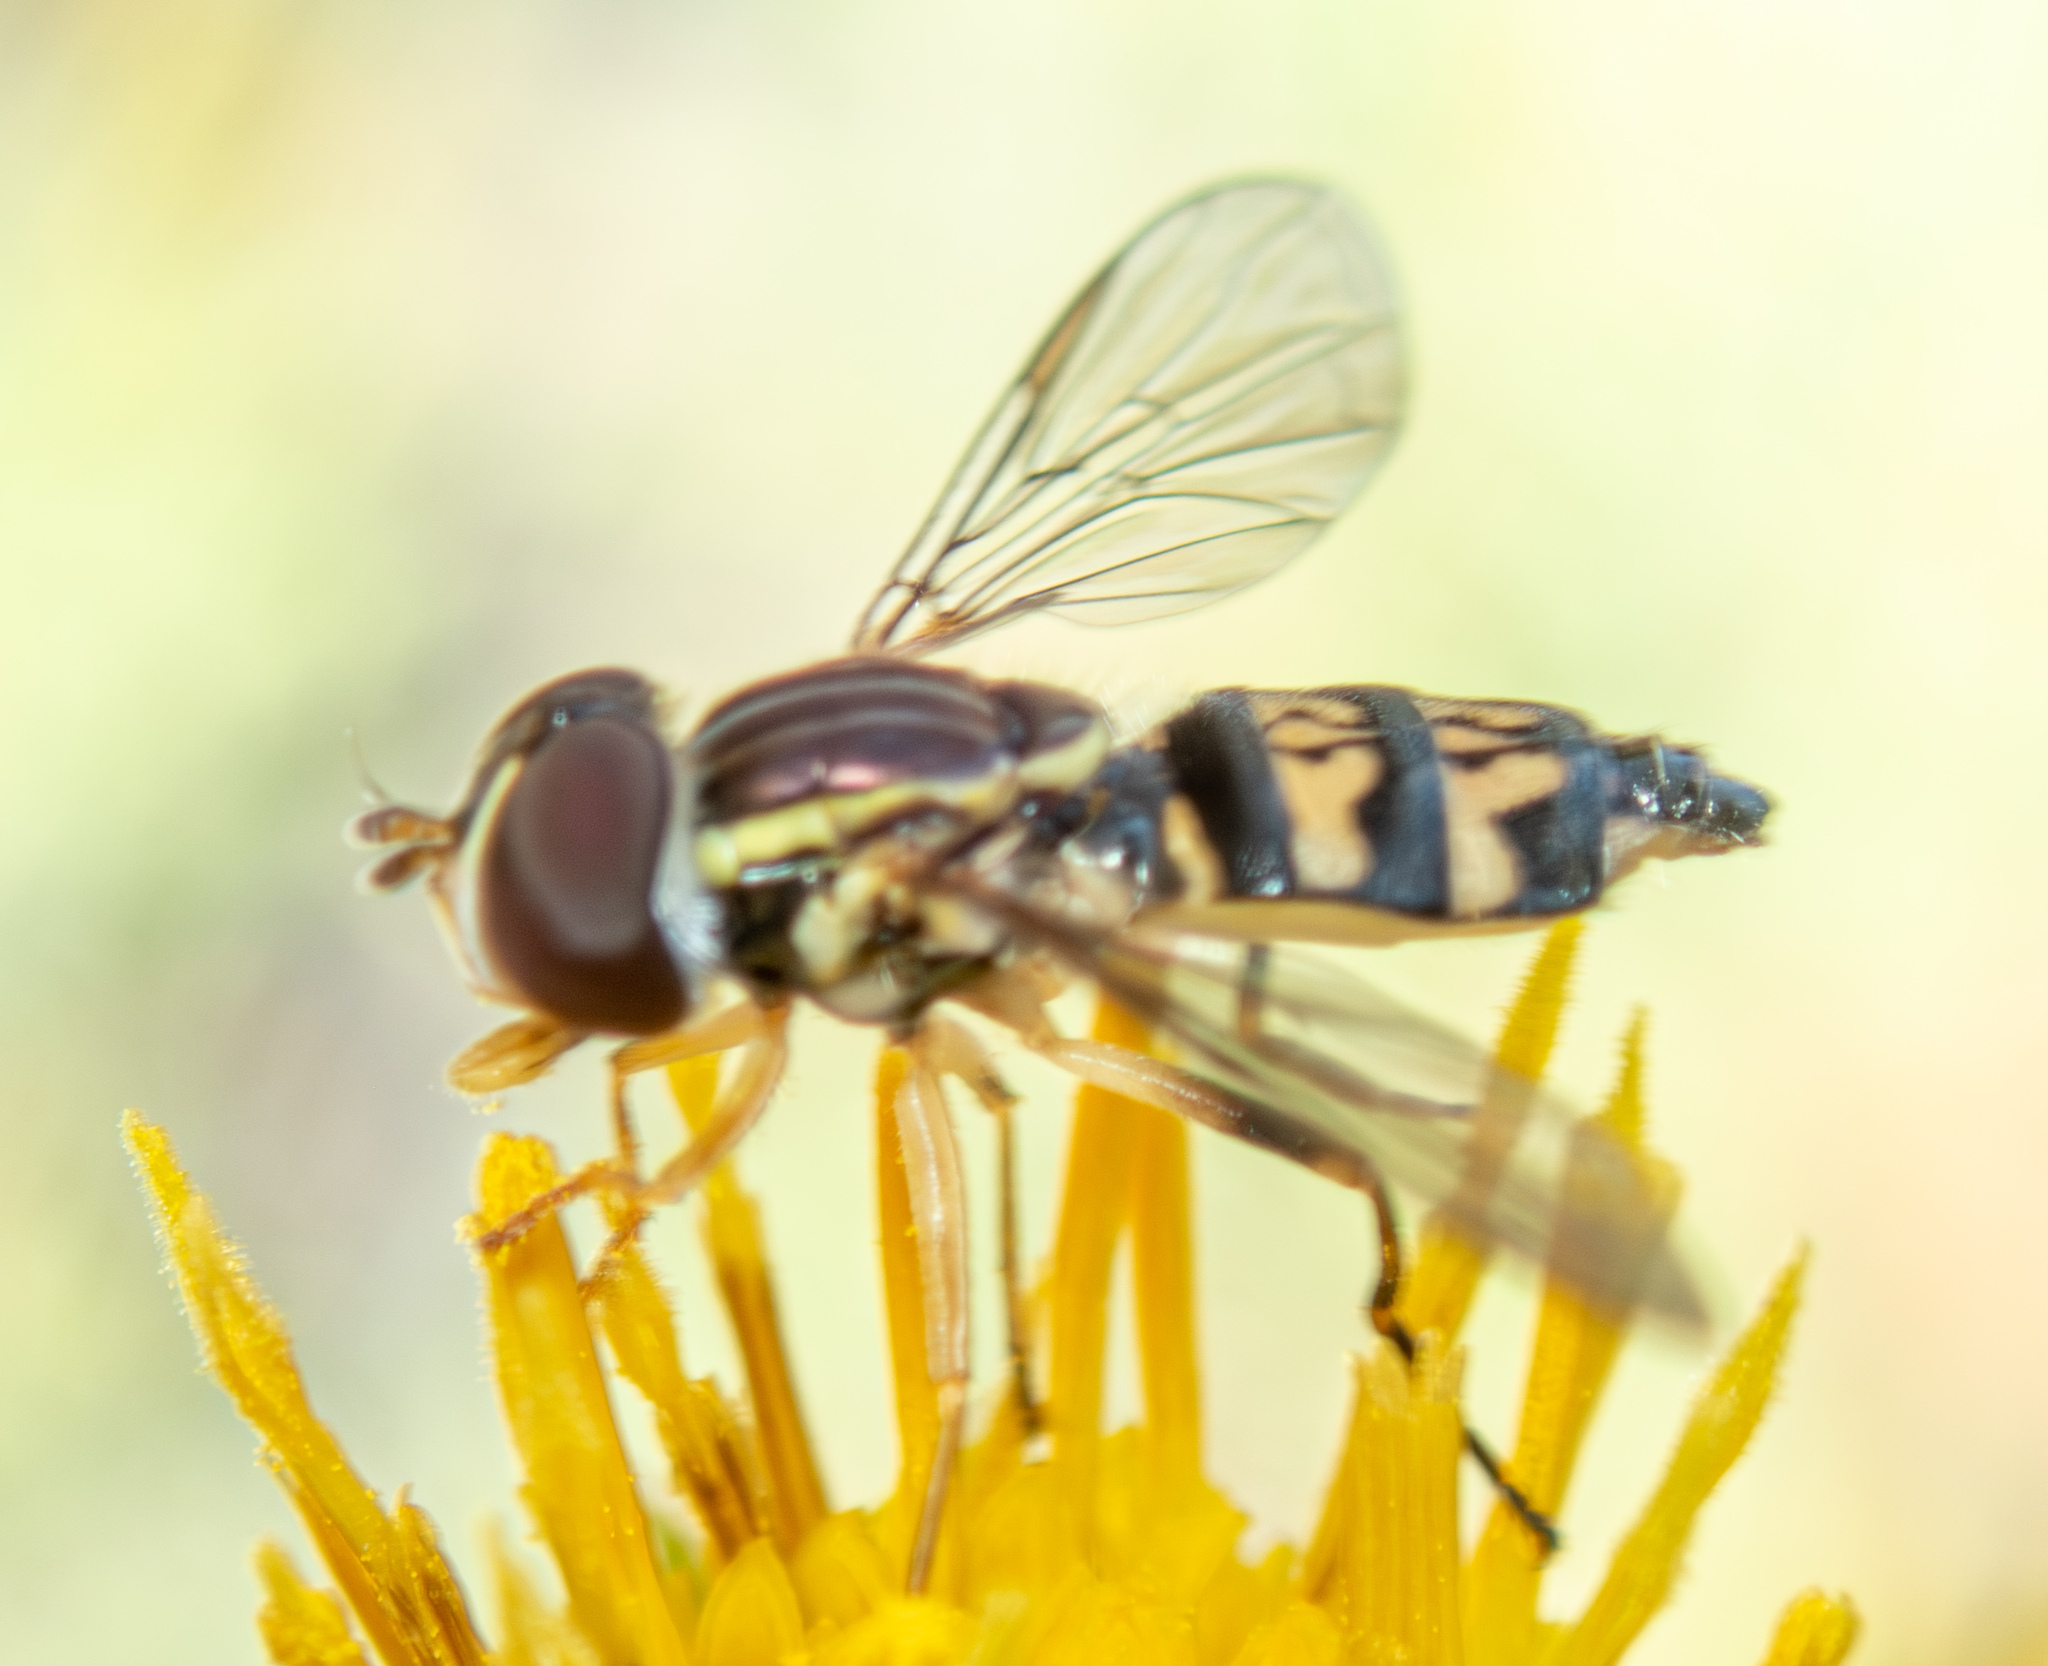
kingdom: Animalia
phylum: Arthropoda
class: Insecta
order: Diptera
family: Syrphidae
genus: Toxomerus
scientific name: Toxomerus occidentalis
